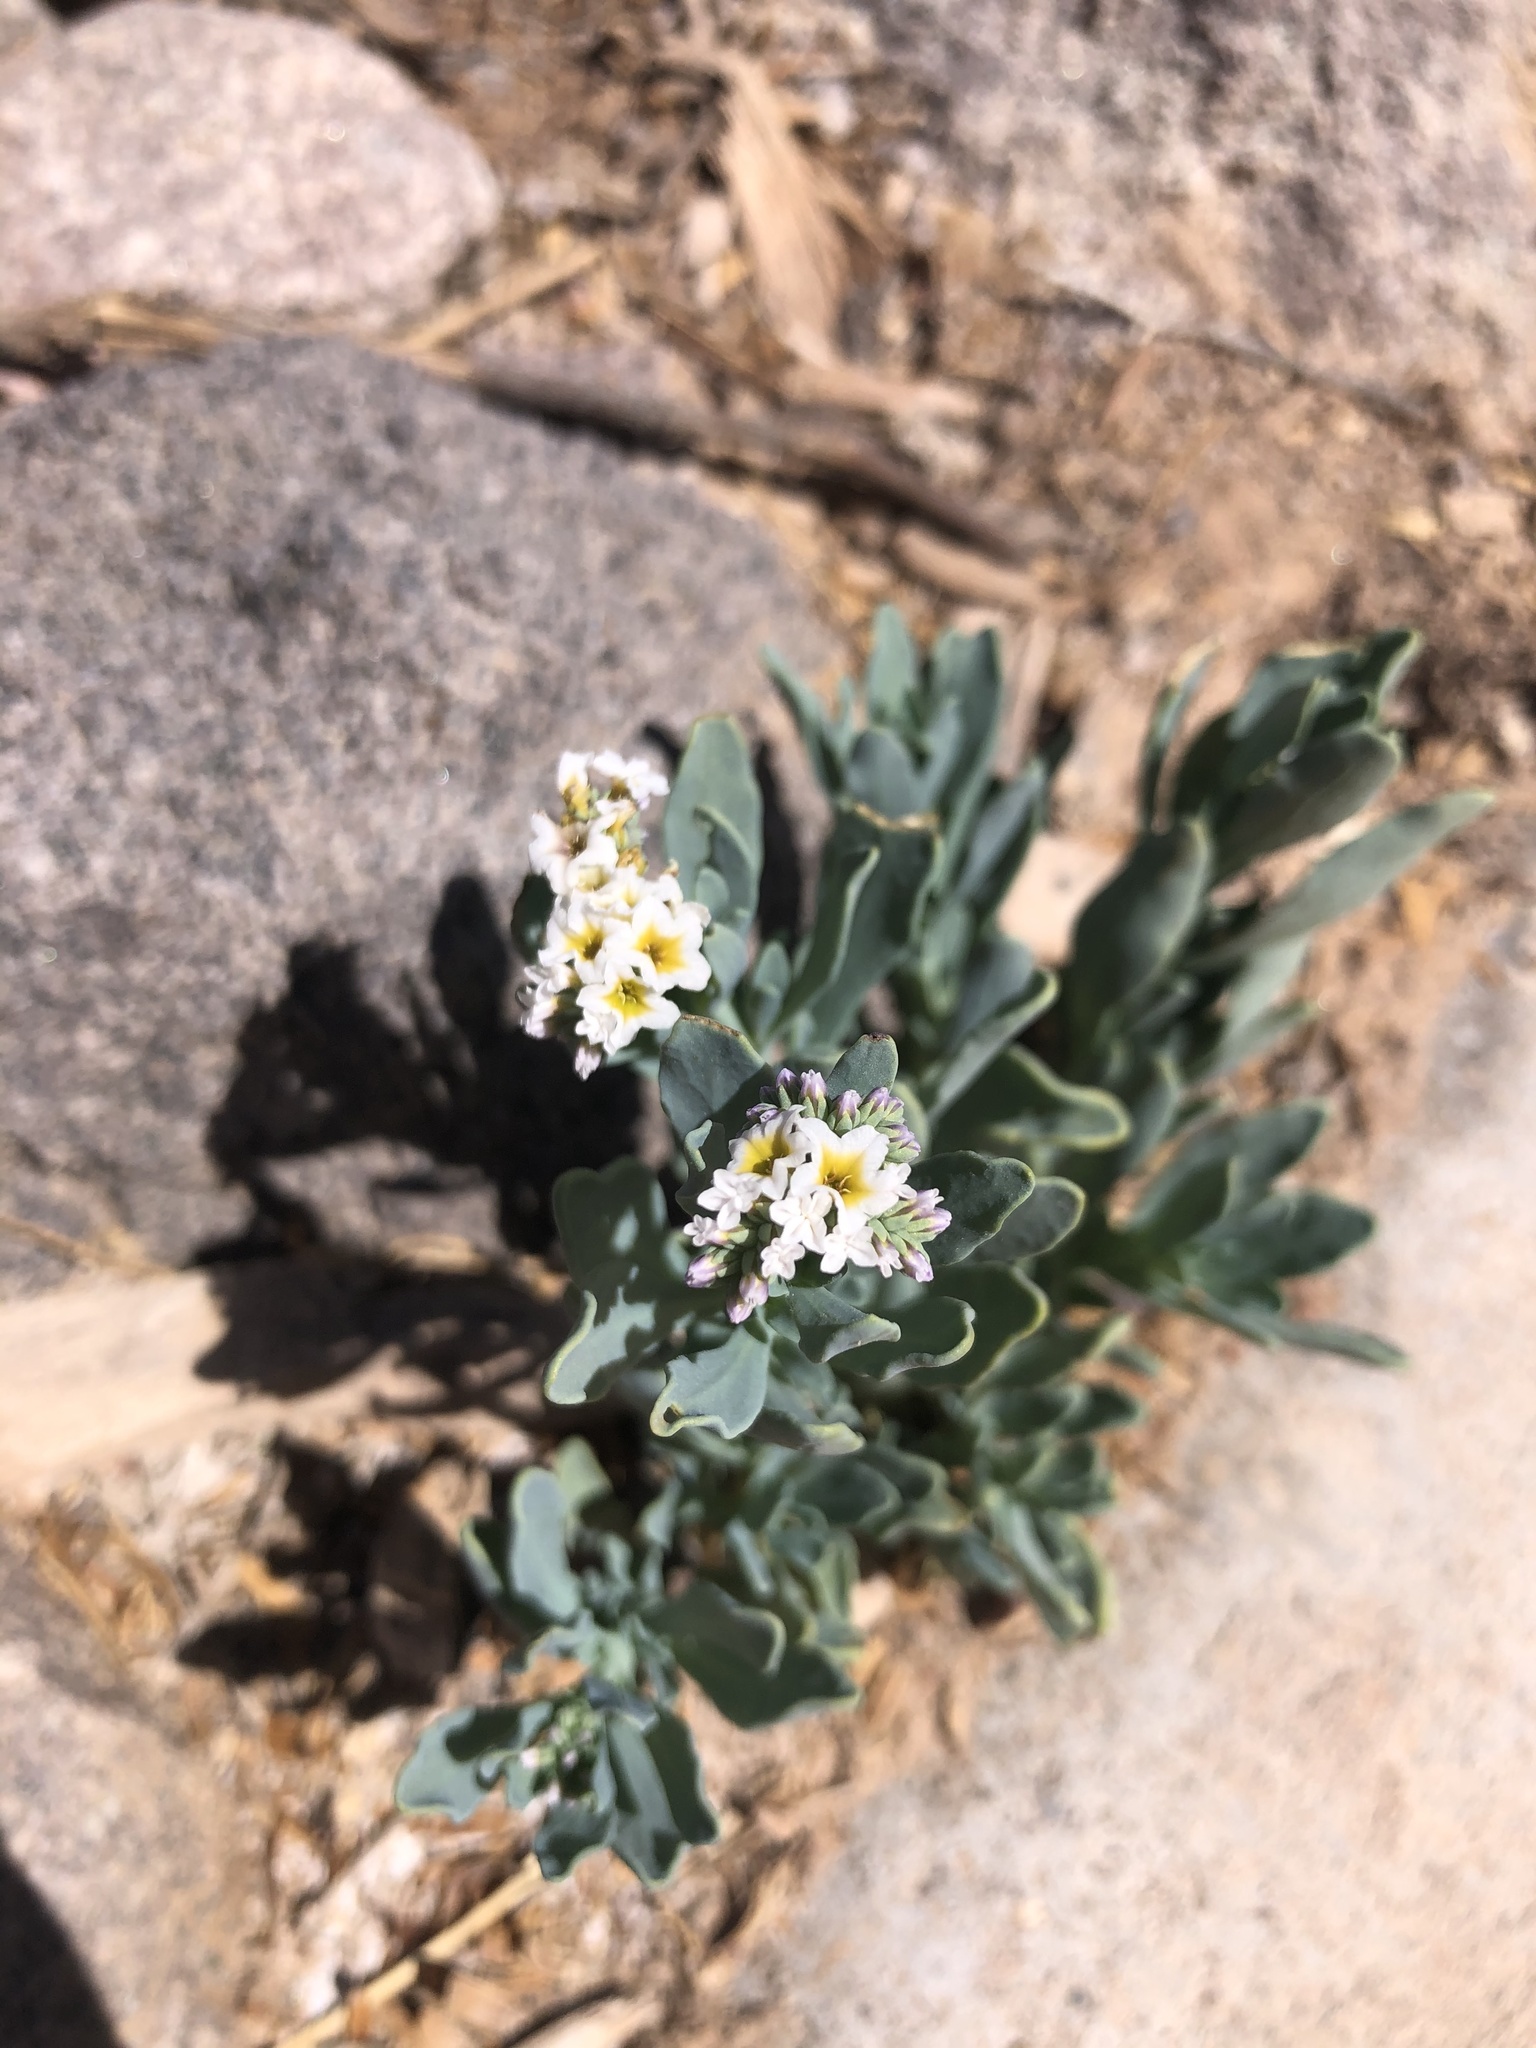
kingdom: Plantae
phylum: Tracheophyta
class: Magnoliopsida
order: Boraginales
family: Heliotropiaceae
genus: Heliotropium
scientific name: Heliotropium curassavicum
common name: Seaside heliotrope
